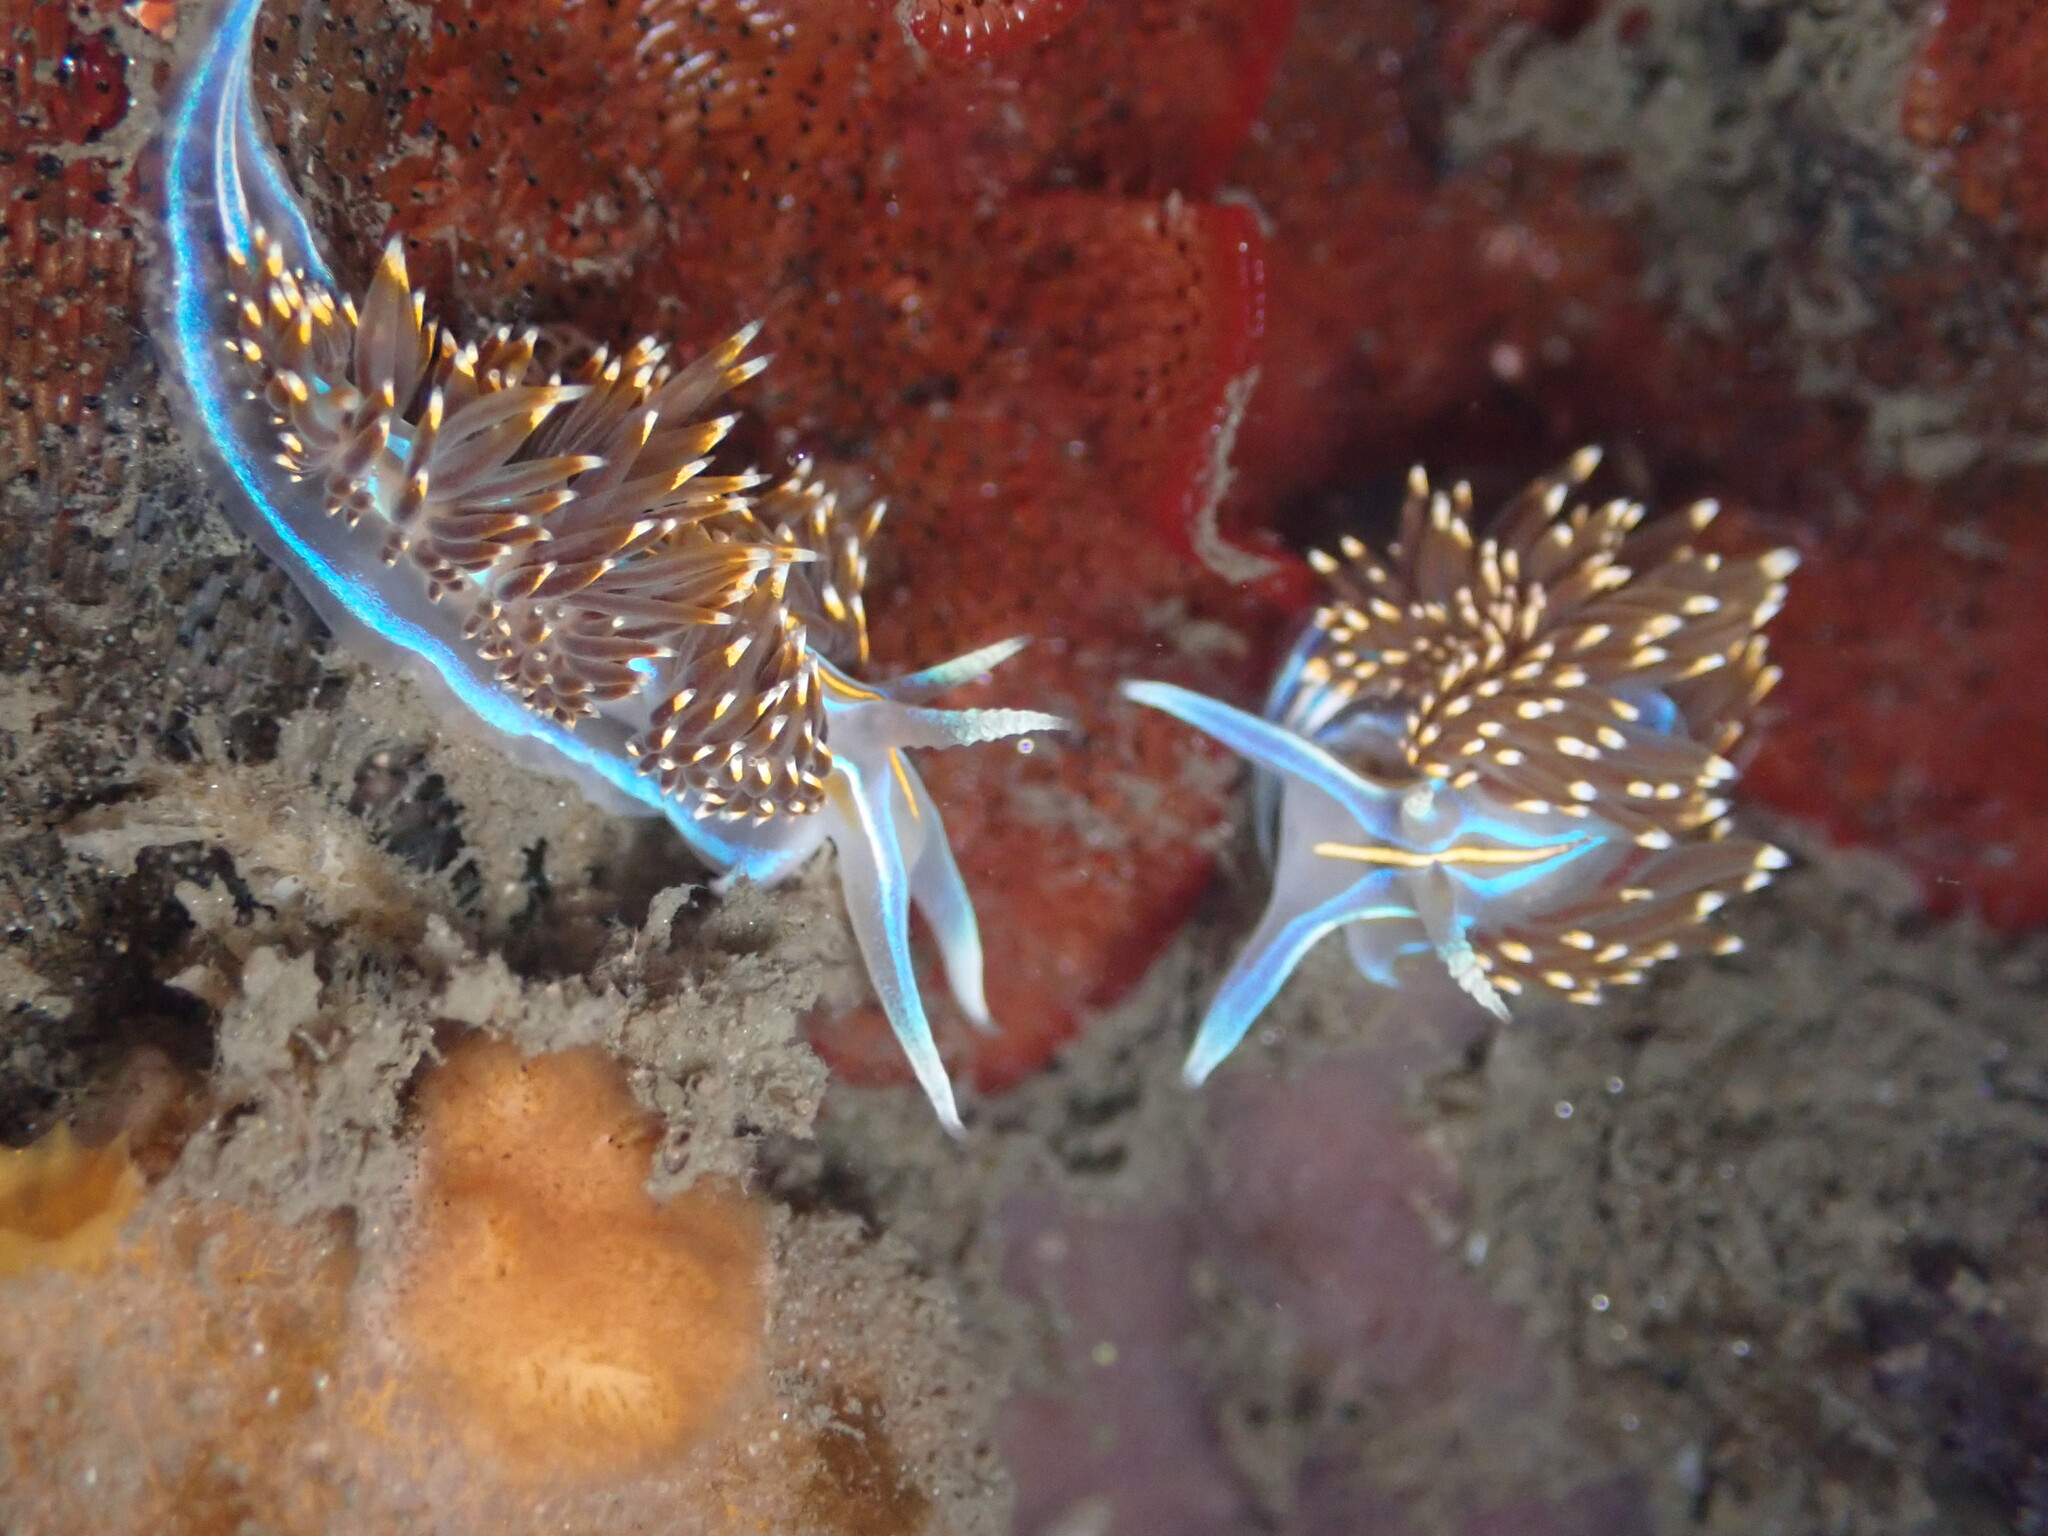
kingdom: Animalia
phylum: Mollusca
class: Gastropoda
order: Nudibranchia
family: Myrrhinidae
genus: Hermissenda
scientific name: Hermissenda opalescens
